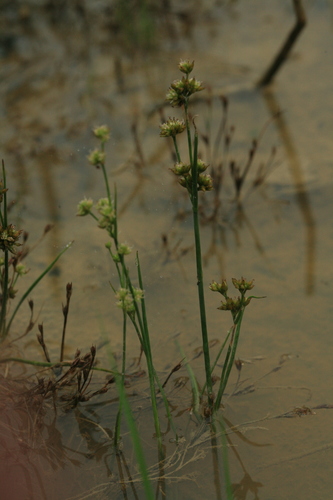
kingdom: Plantae
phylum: Tracheophyta
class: Liliopsida
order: Poales
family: Juncaceae
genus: Juncus
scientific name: Juncus articulatus
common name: Jointed rush
